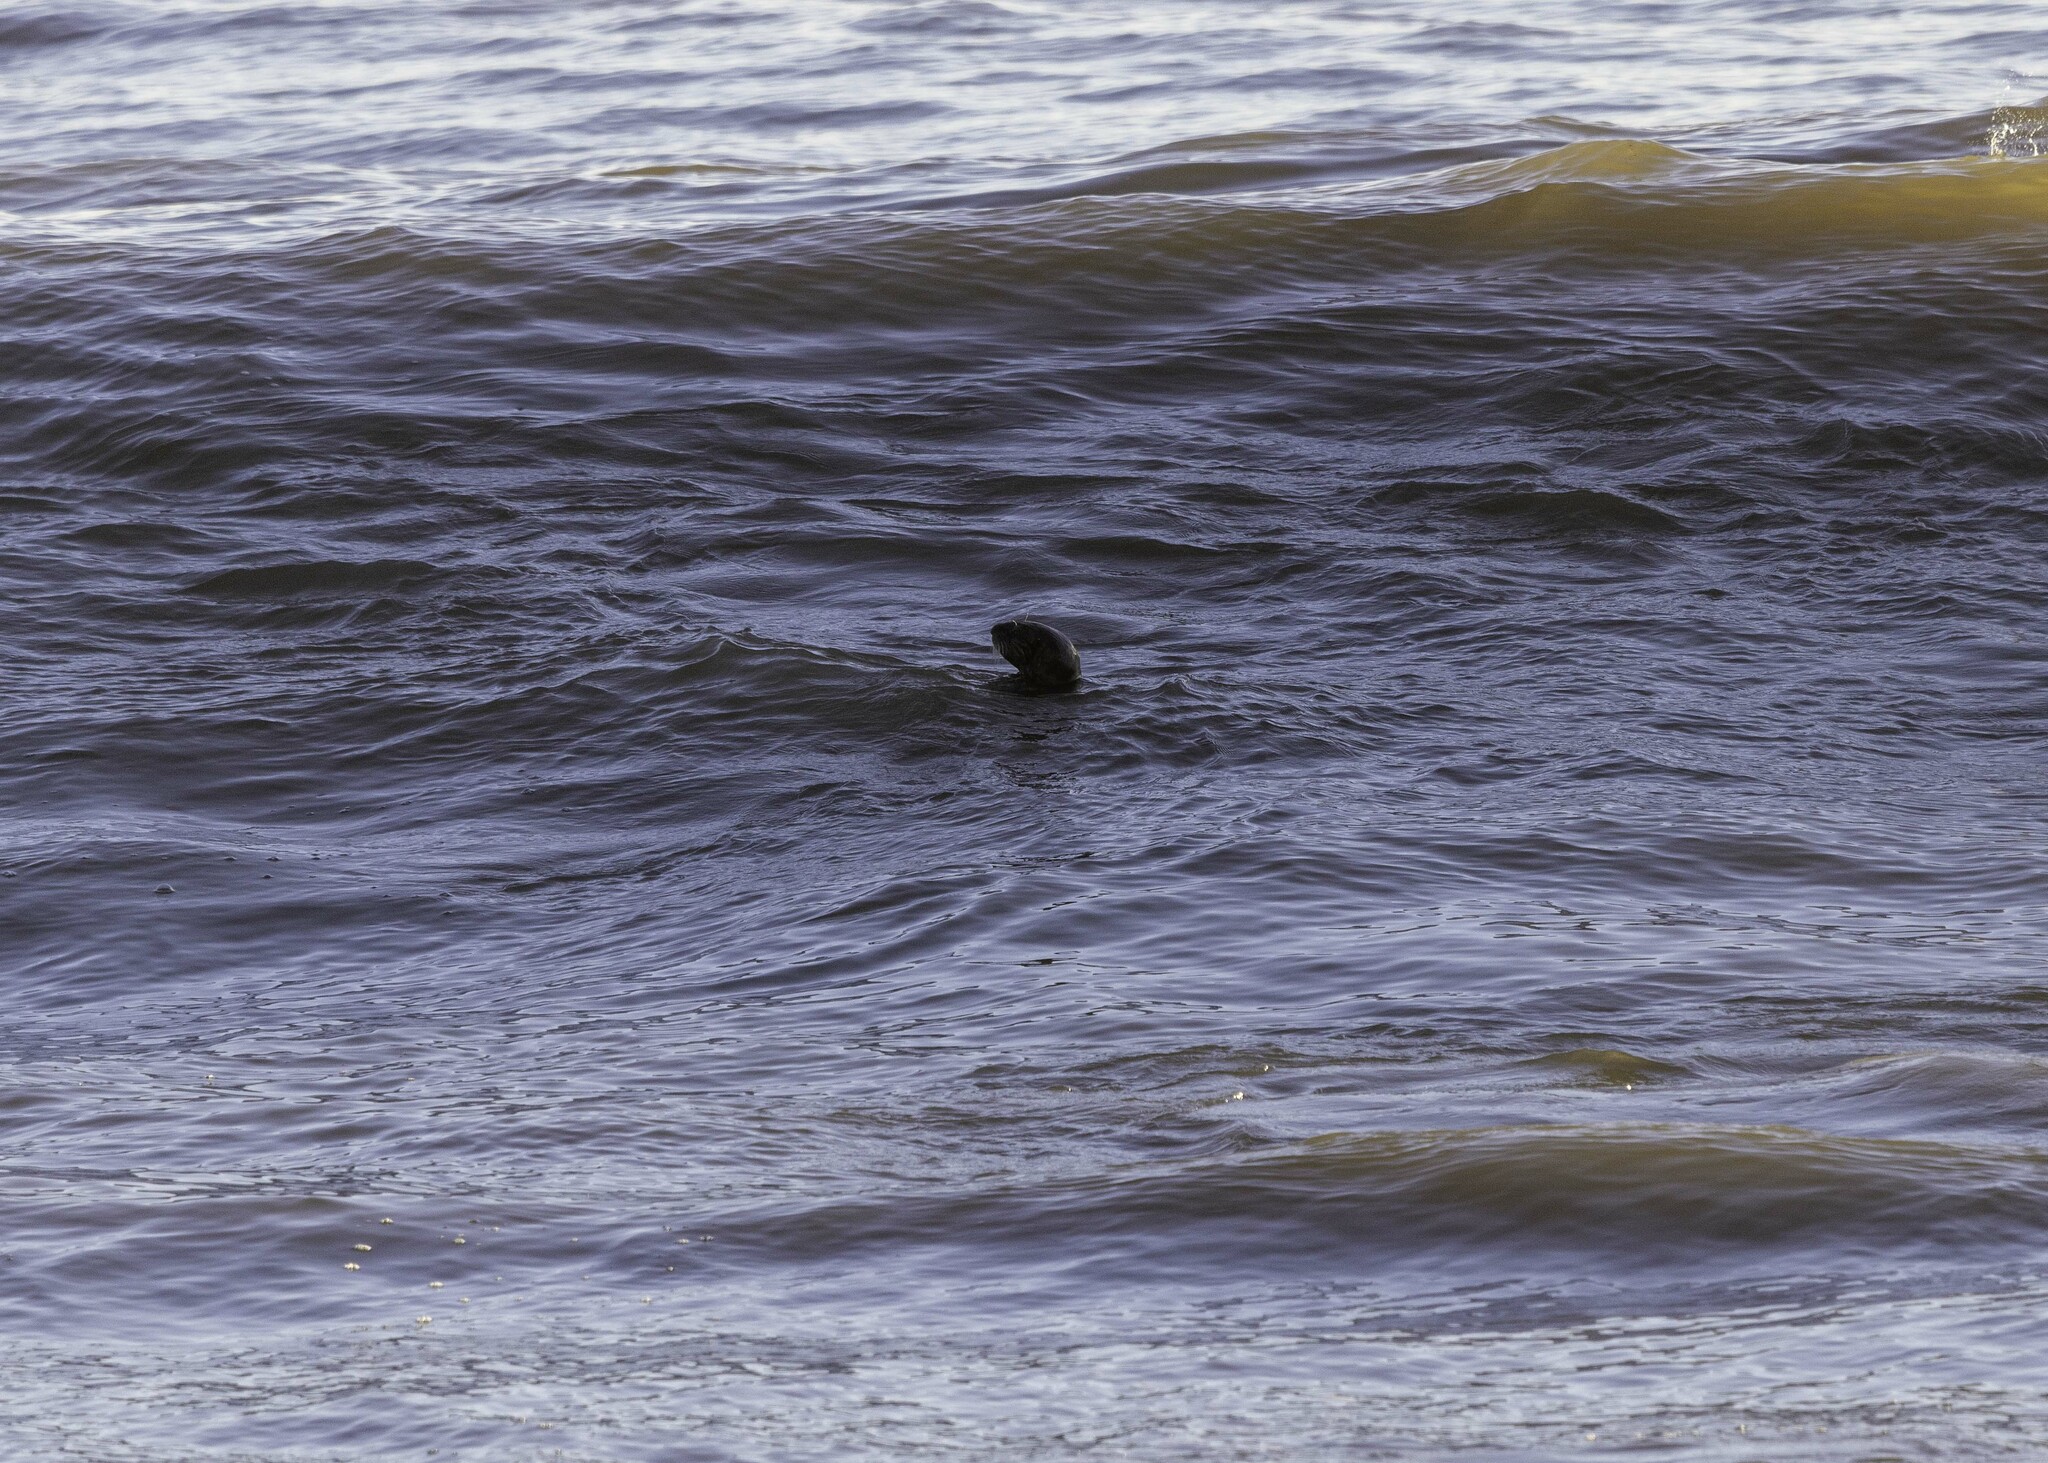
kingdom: Animalia
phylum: Chordata
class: Mammalia
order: Carnivora
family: Mustelidae
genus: Enhydra
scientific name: Enhydra lutris
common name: Sea otter
